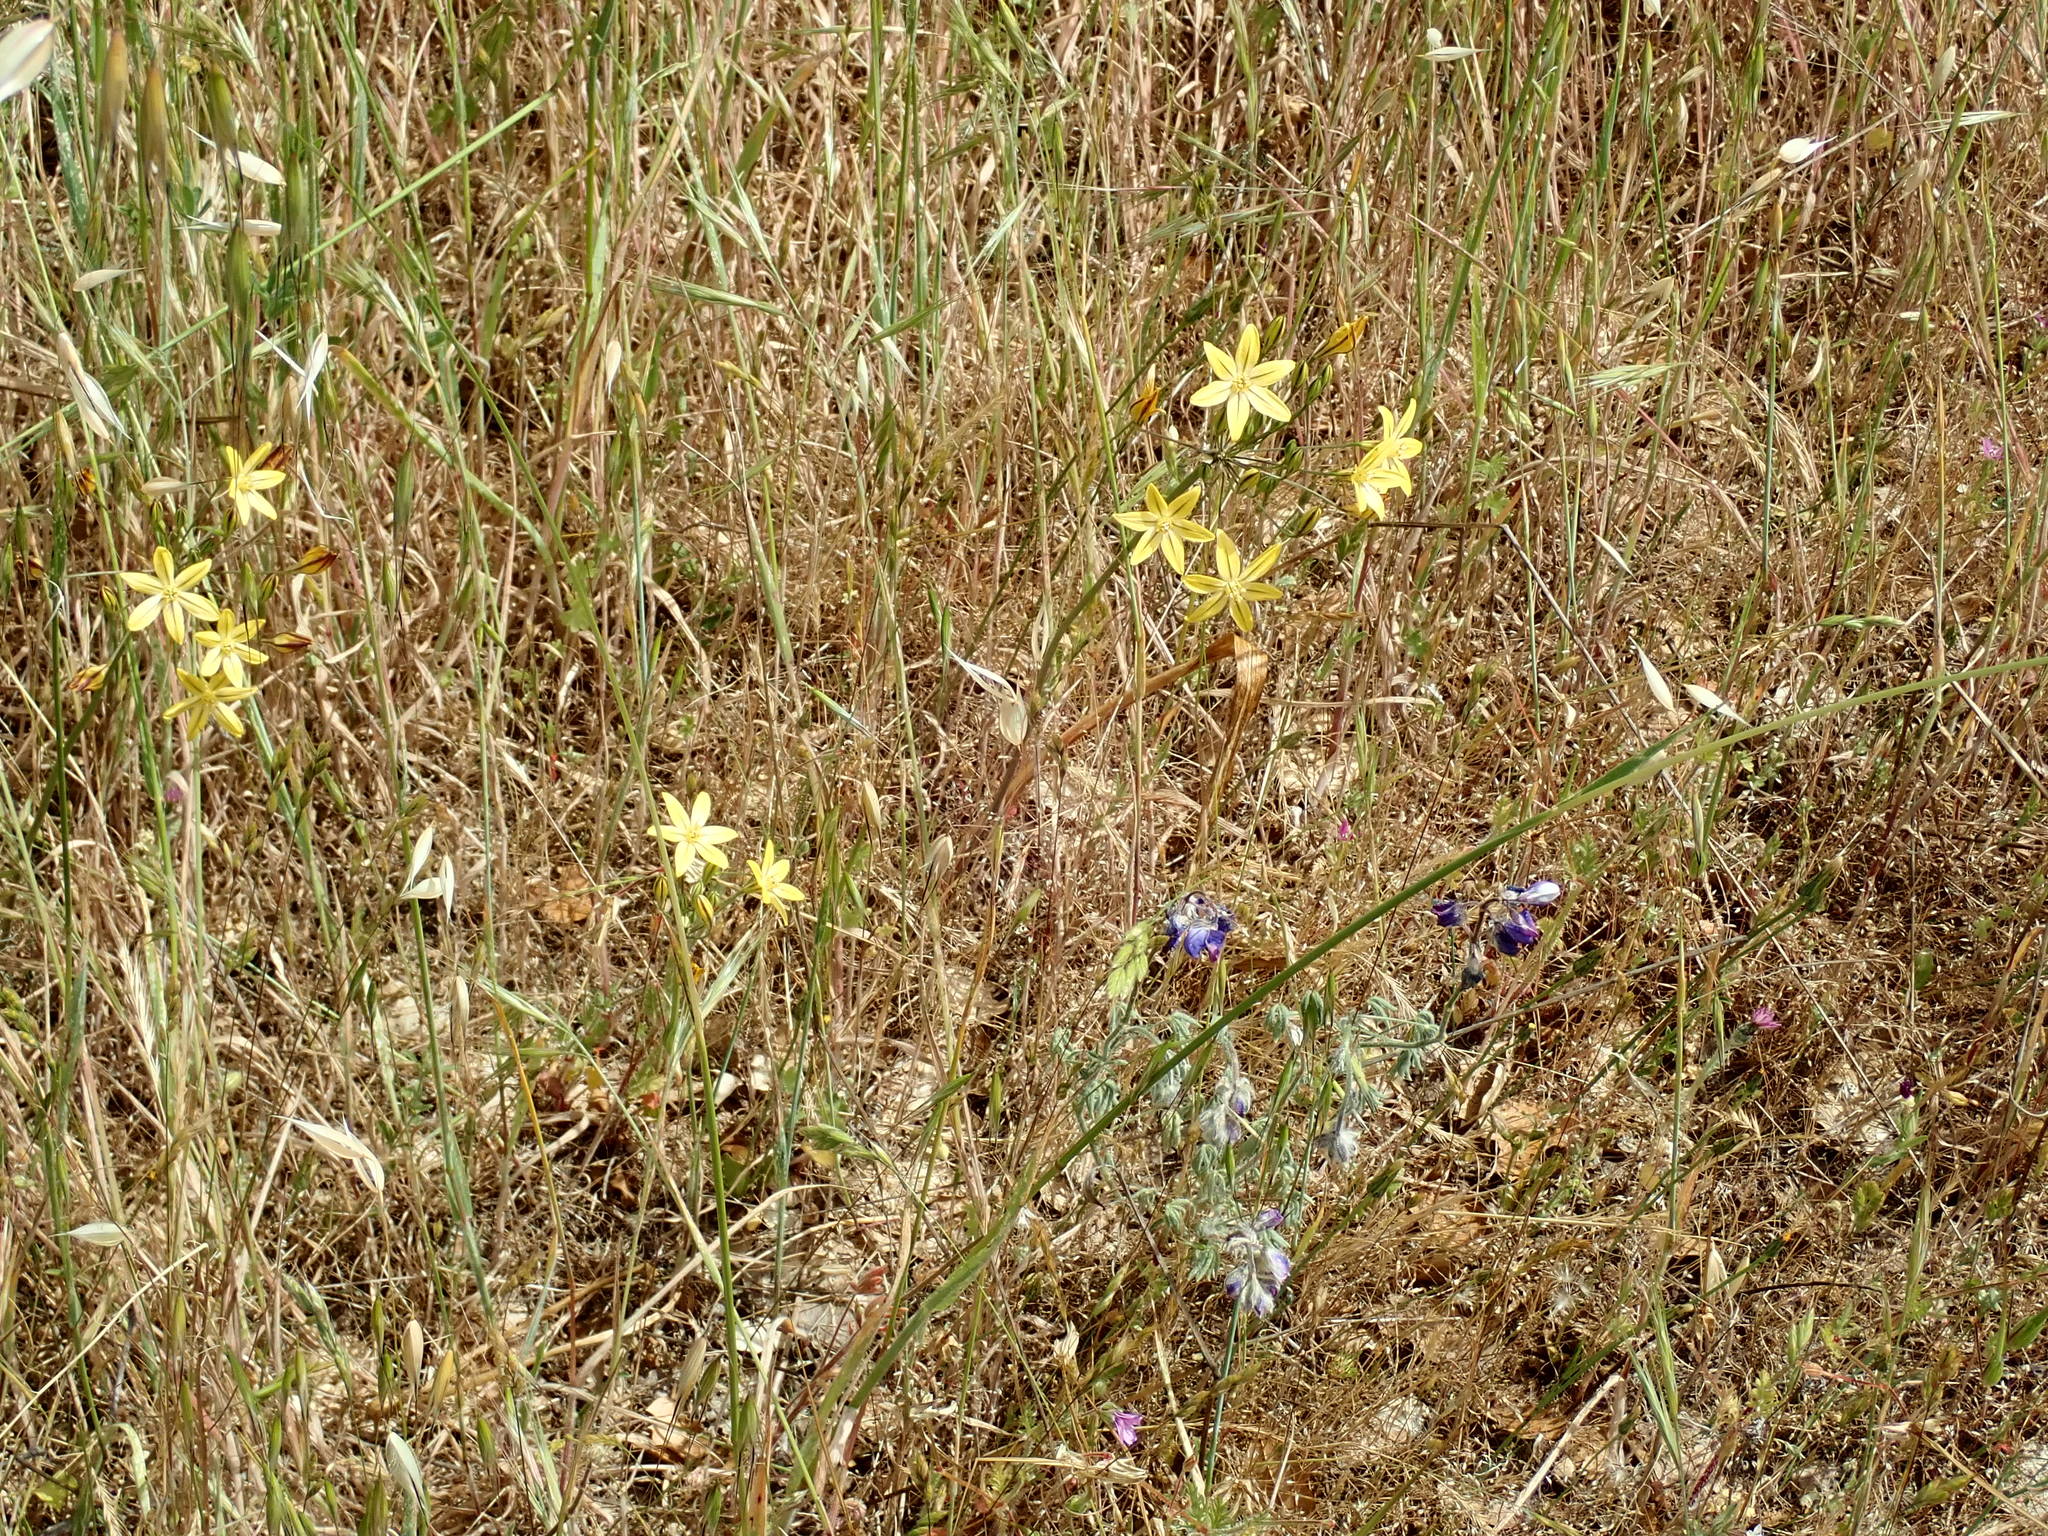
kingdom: Plantae
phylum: Tracheophyta
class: Liliopsida
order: Asparagales
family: Asparagaceae
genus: Triteleia
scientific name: Triteleia ixioides
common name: Yellow-brodiaea
